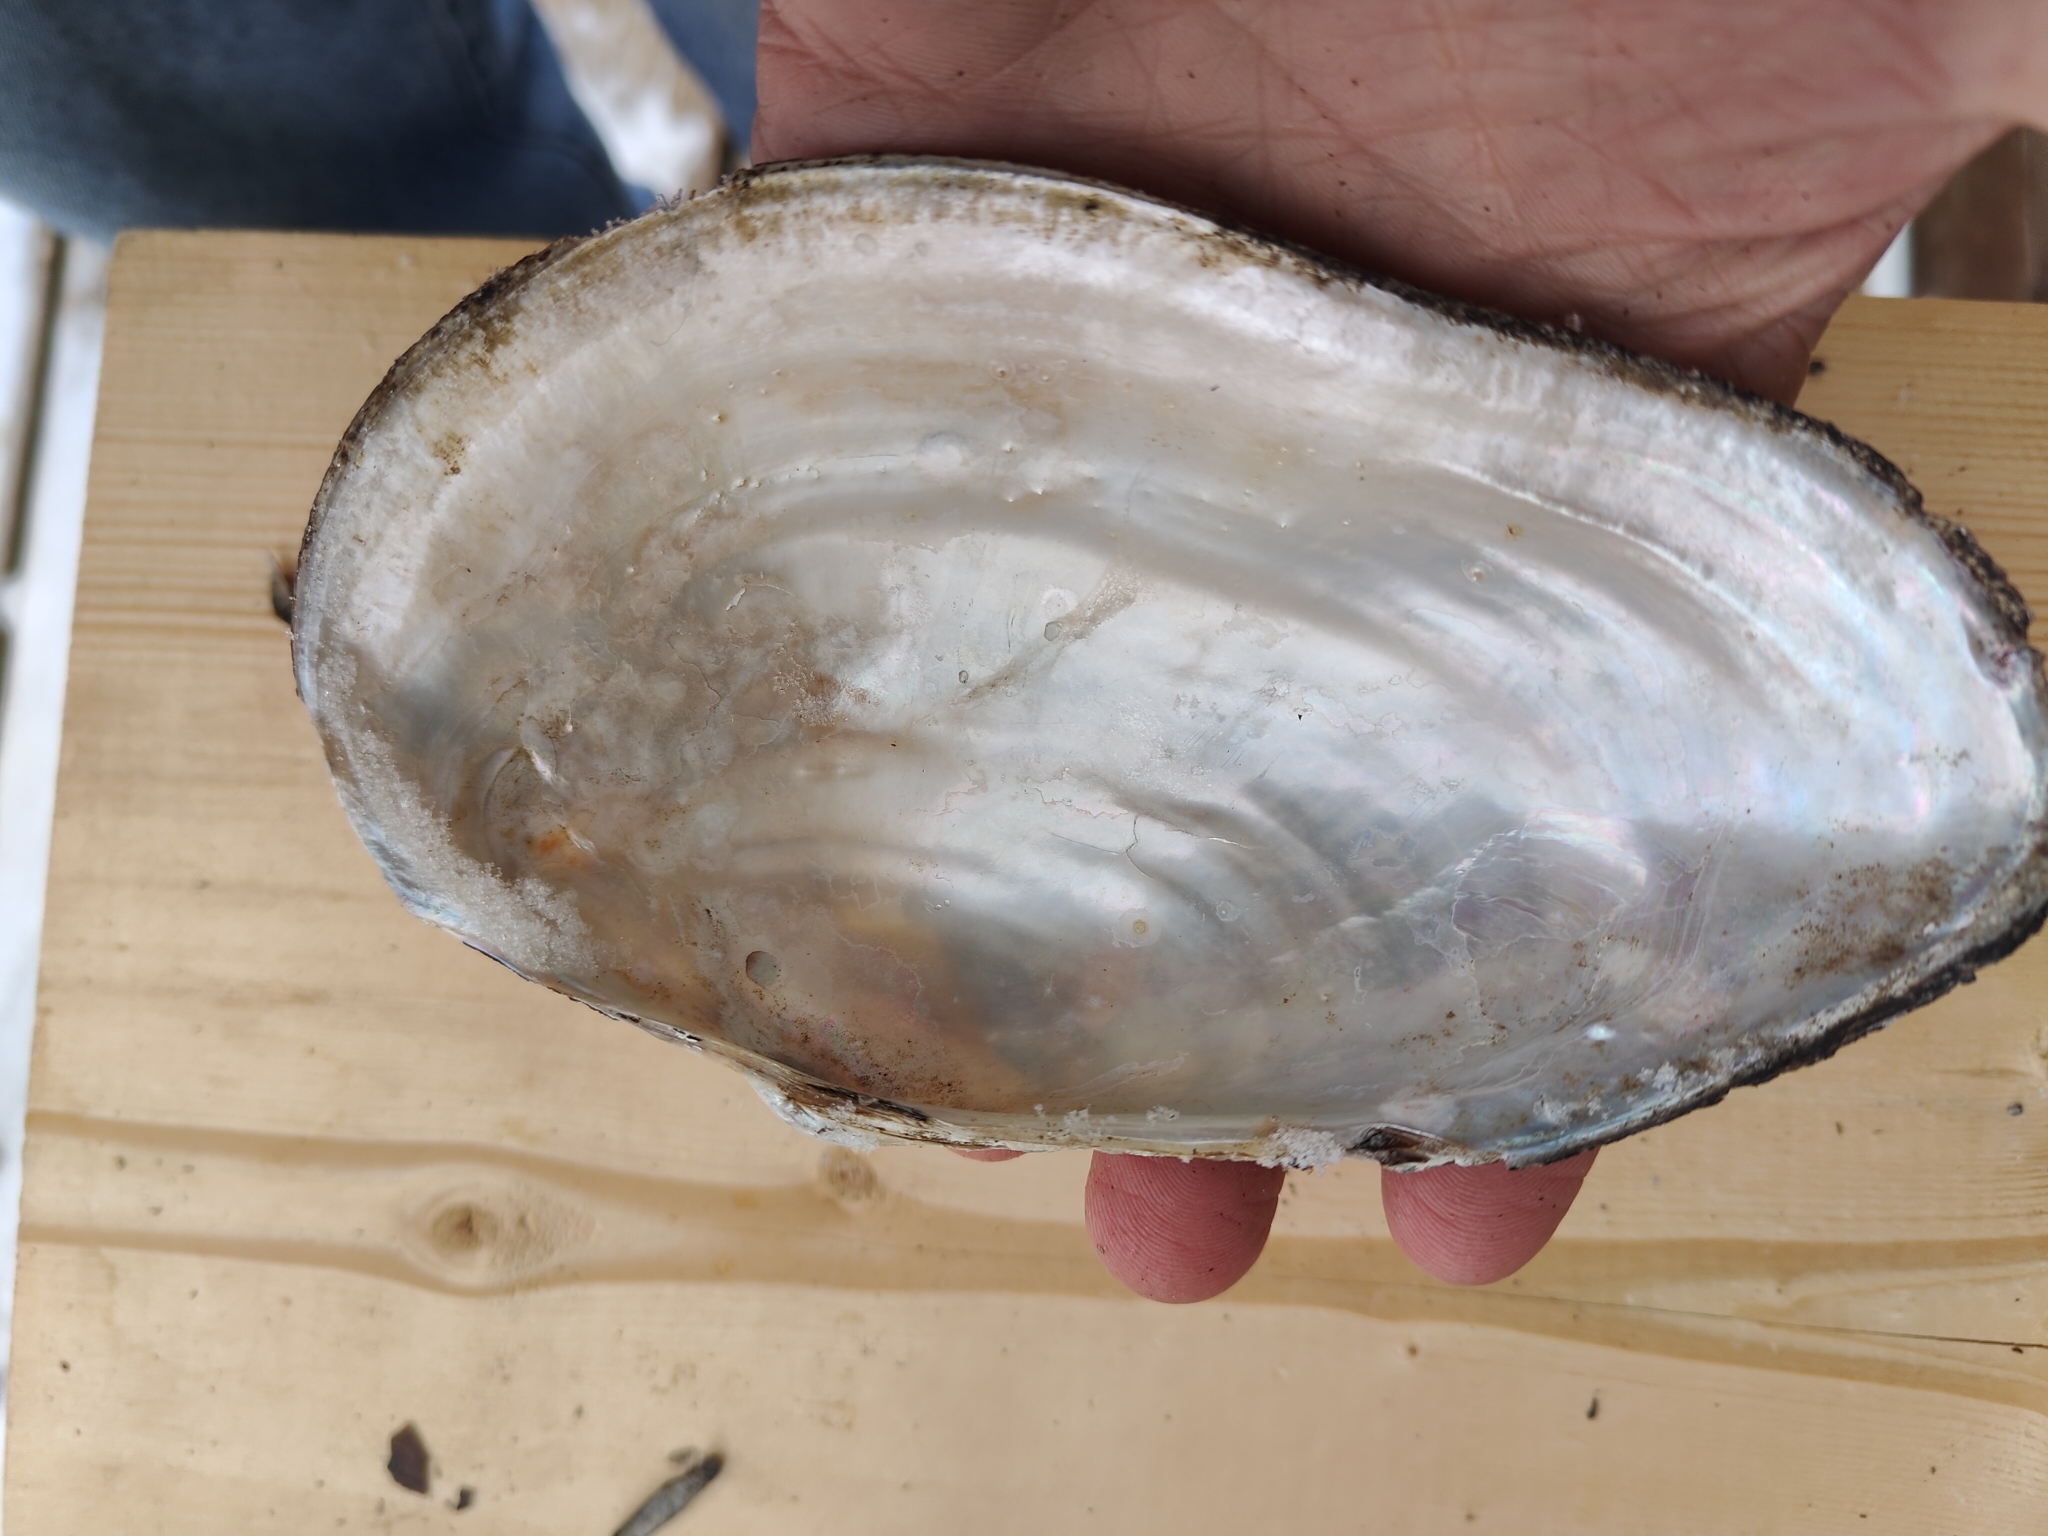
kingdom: Animalia
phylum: Mollusca
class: Bivalvia
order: Unionida
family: Unionidae
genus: Pyganodon
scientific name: Pyganodon grandis
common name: Giant floater
